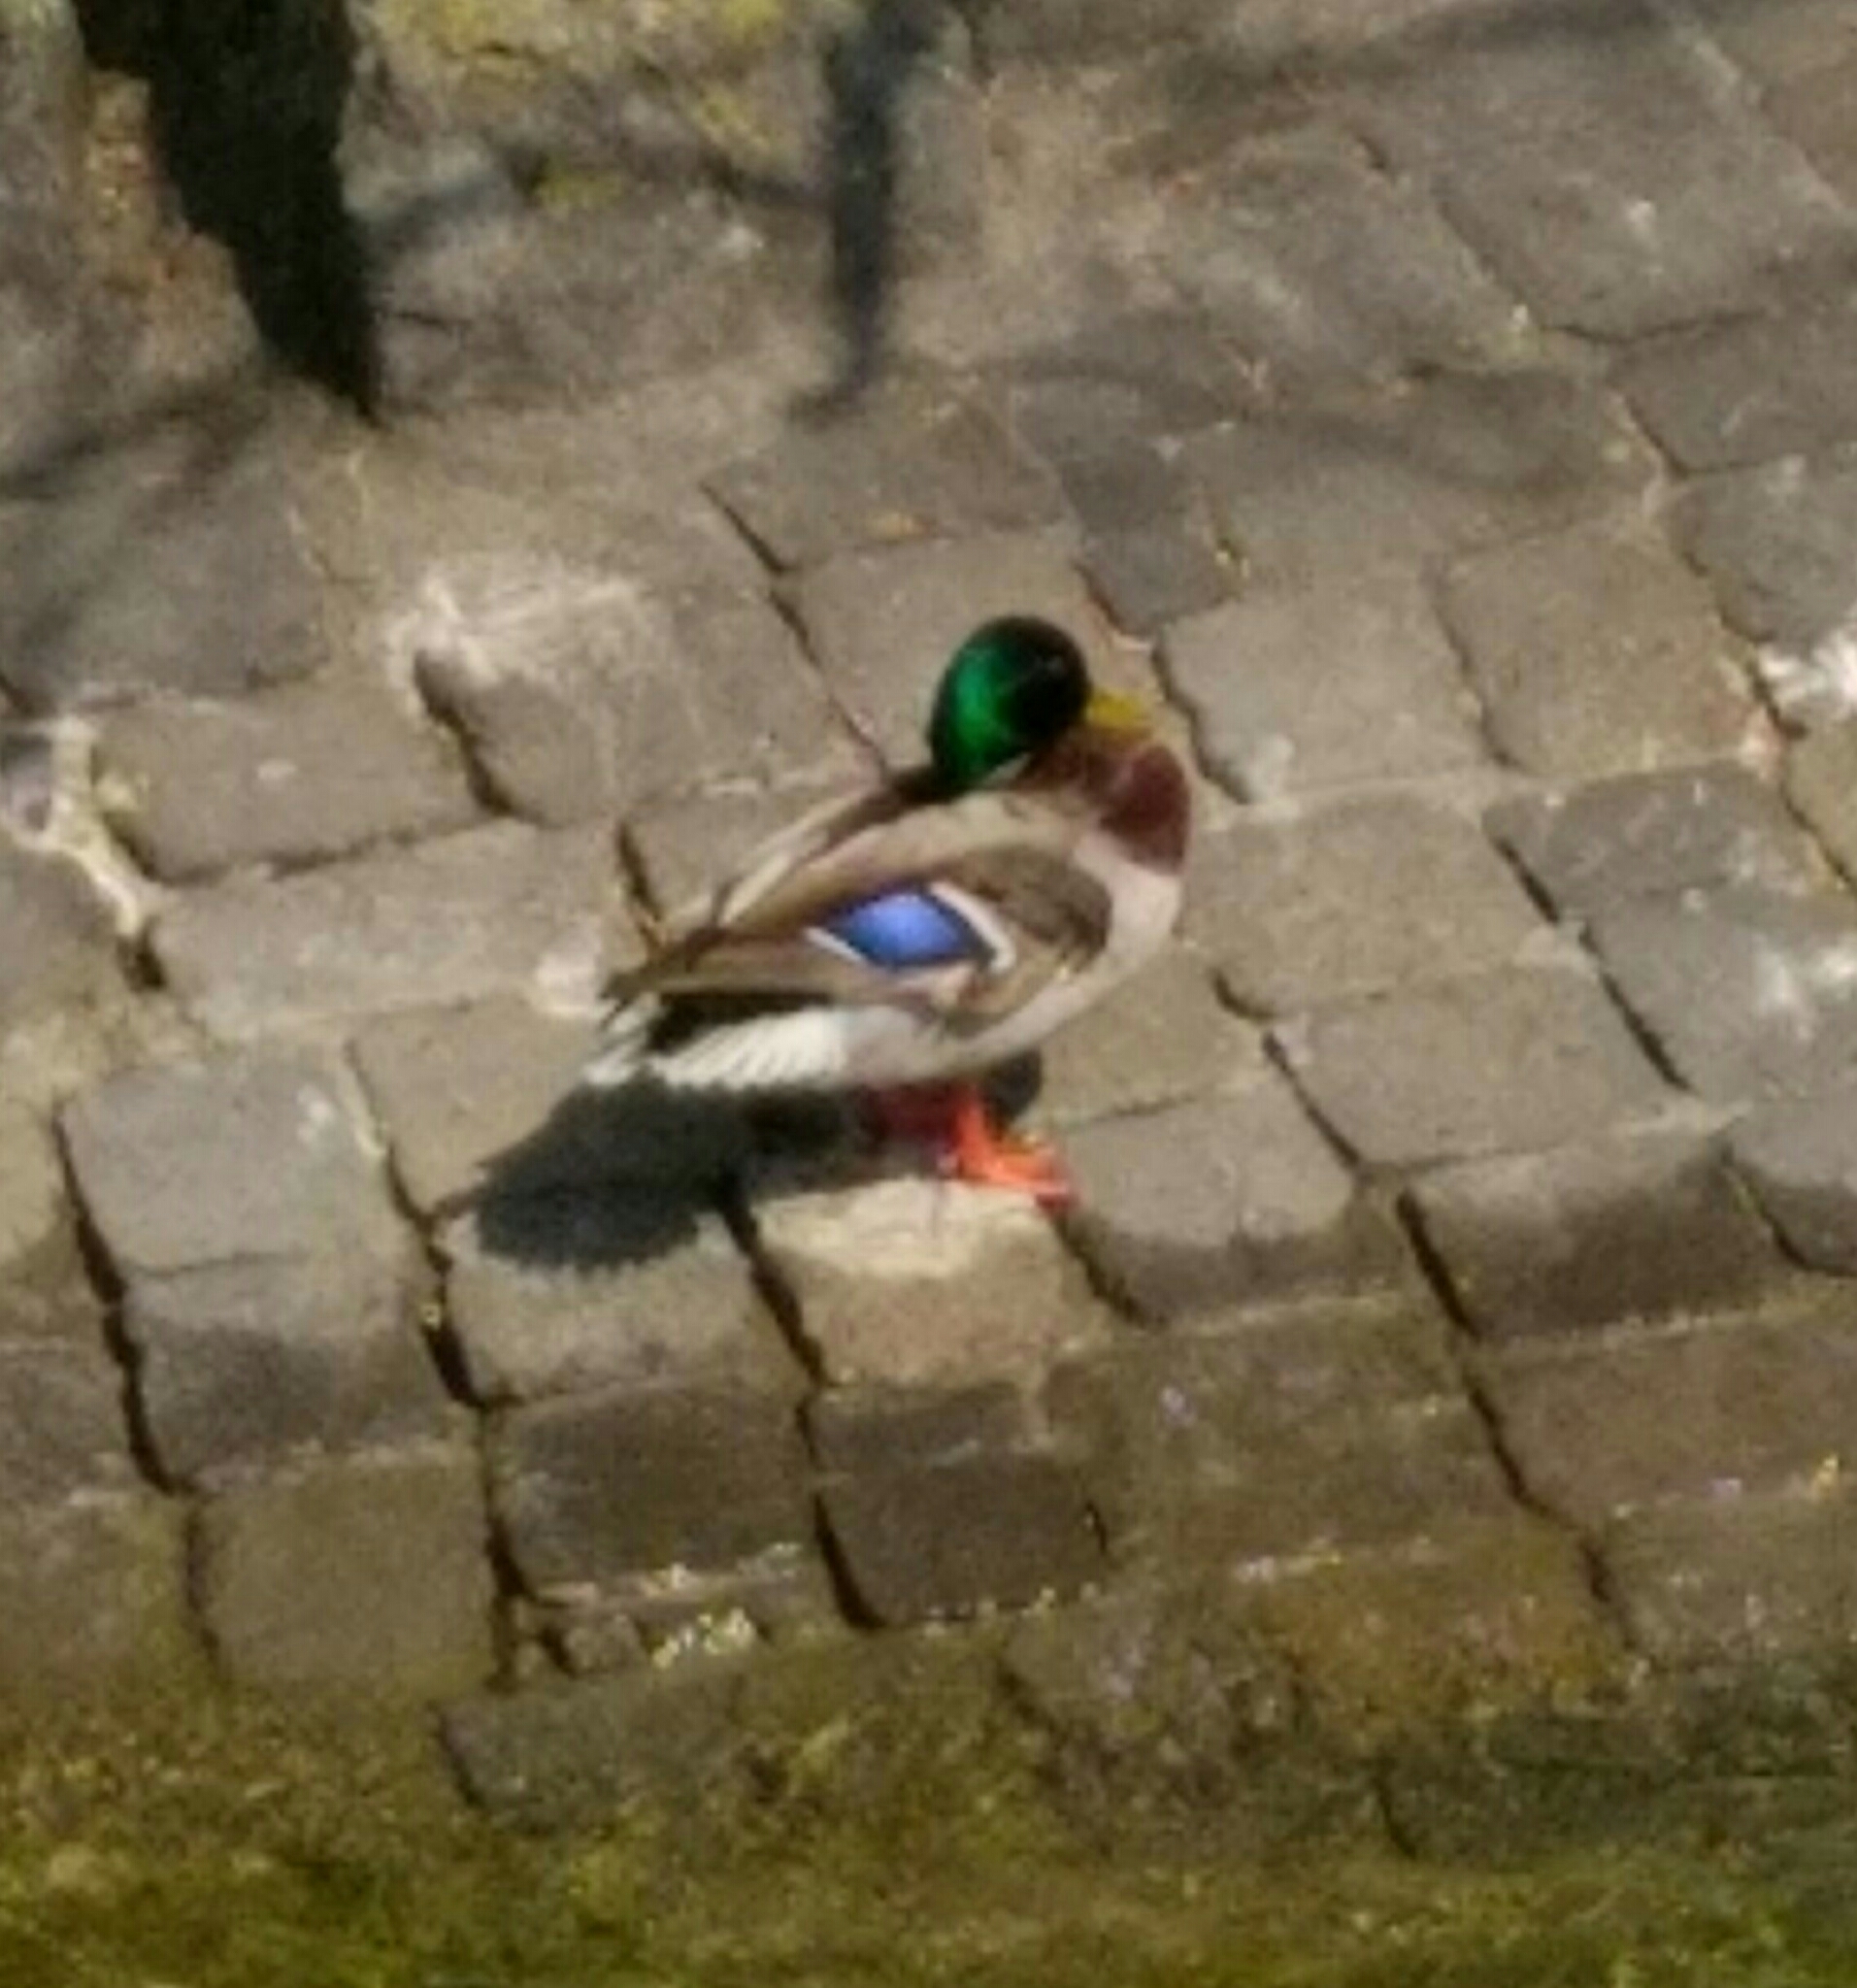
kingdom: Animalia
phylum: Chordata
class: Aves
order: Anseriformes
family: Anatidae
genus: Anas
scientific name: Anas platyrhynchos
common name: Mallard
